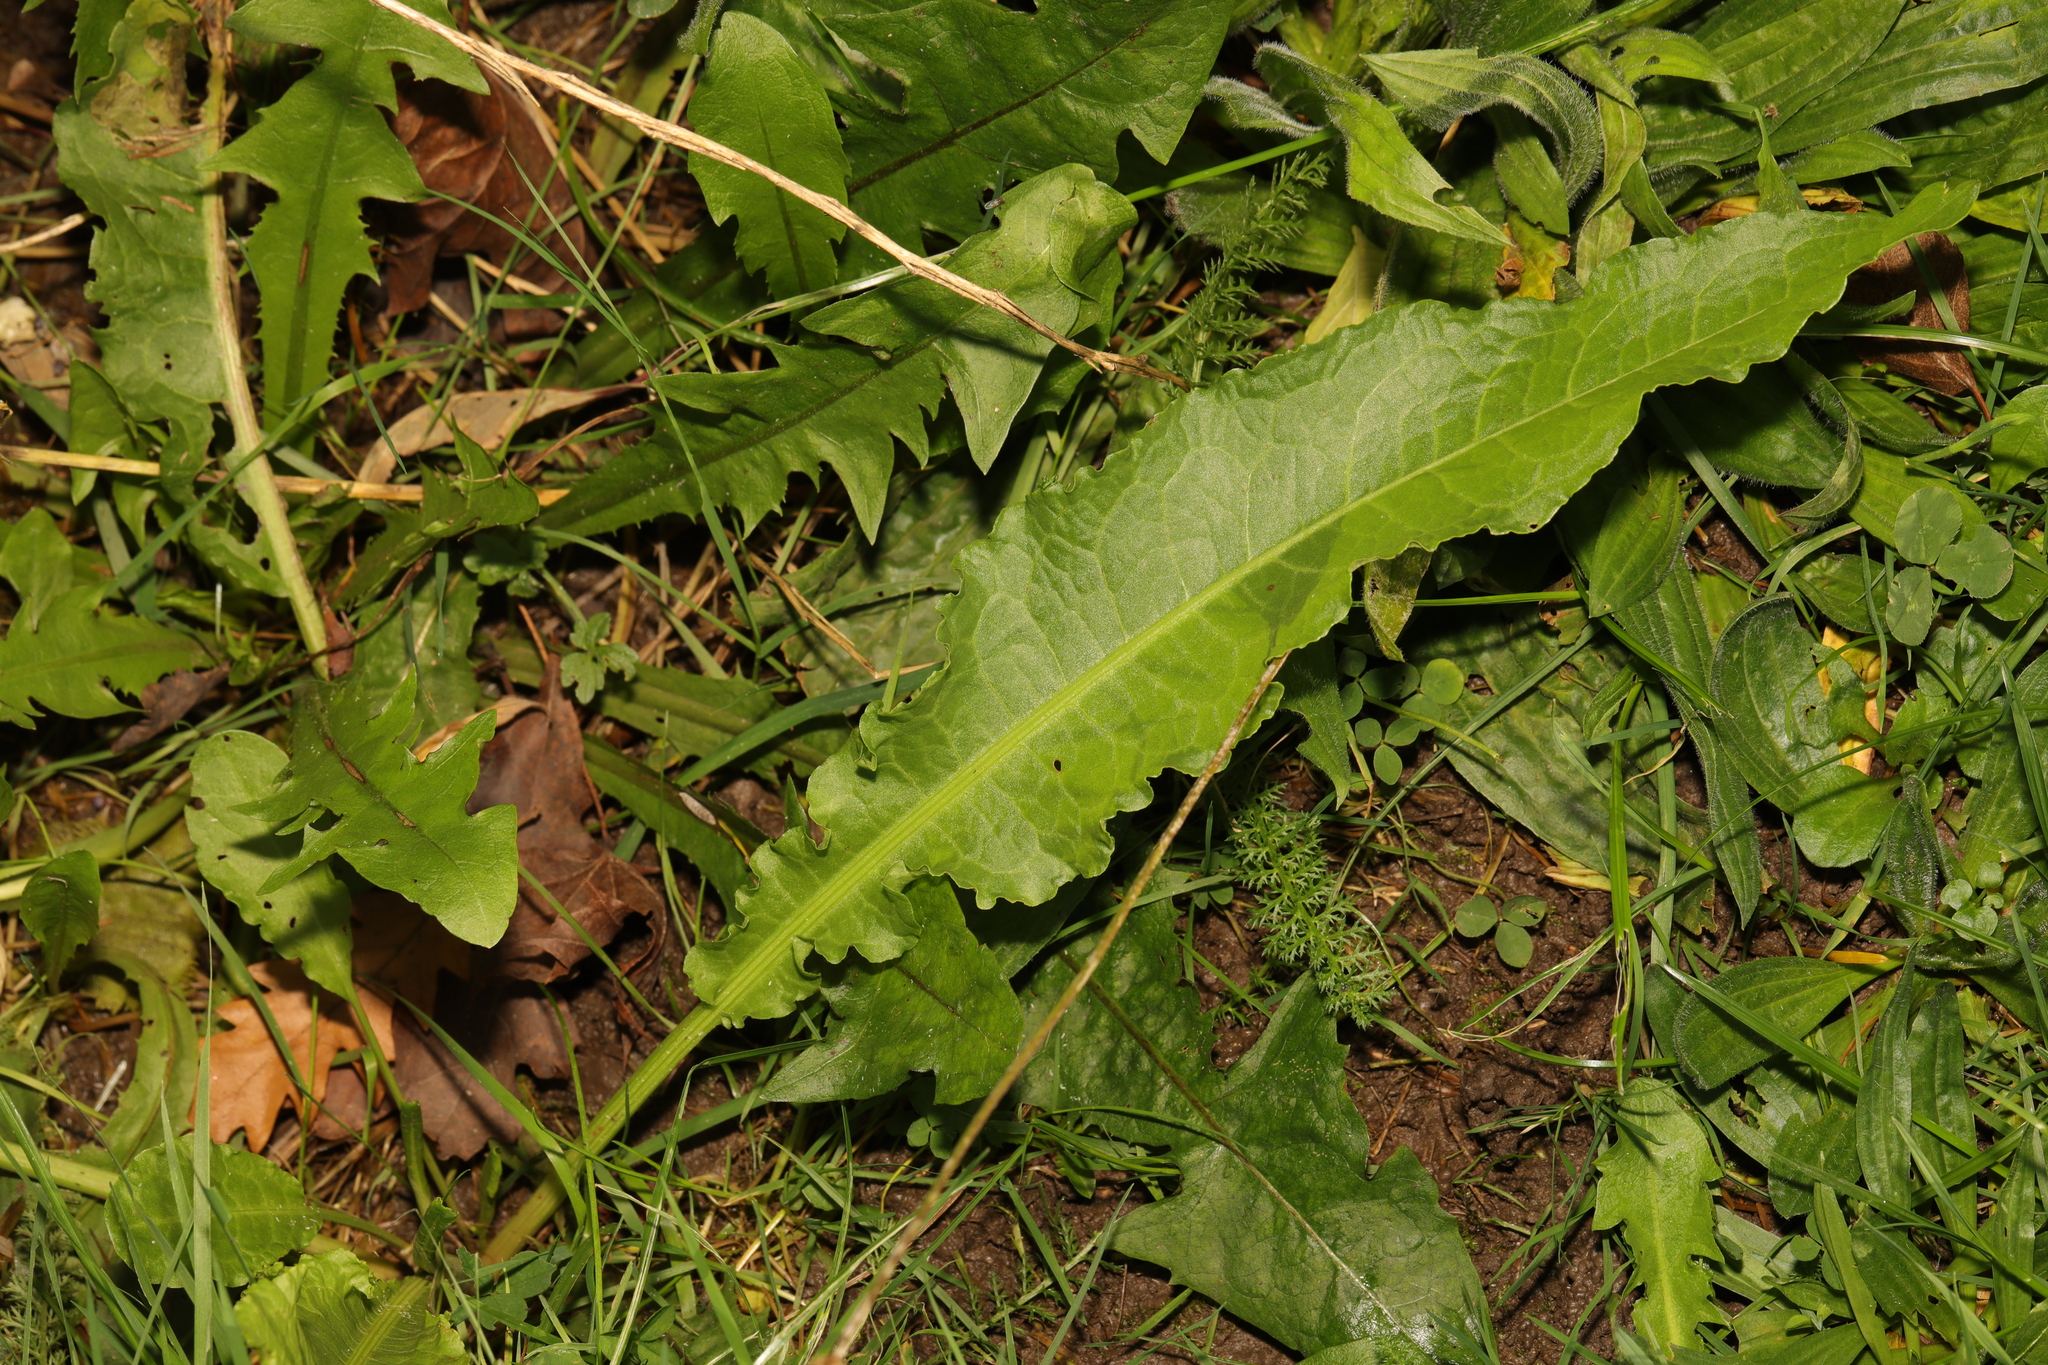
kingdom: Plantae
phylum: Tracheophyta
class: Magnoliopsida
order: Caryophyllales
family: Polygonaceae
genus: Rumex
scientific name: Rumex crispus
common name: Curled dock
